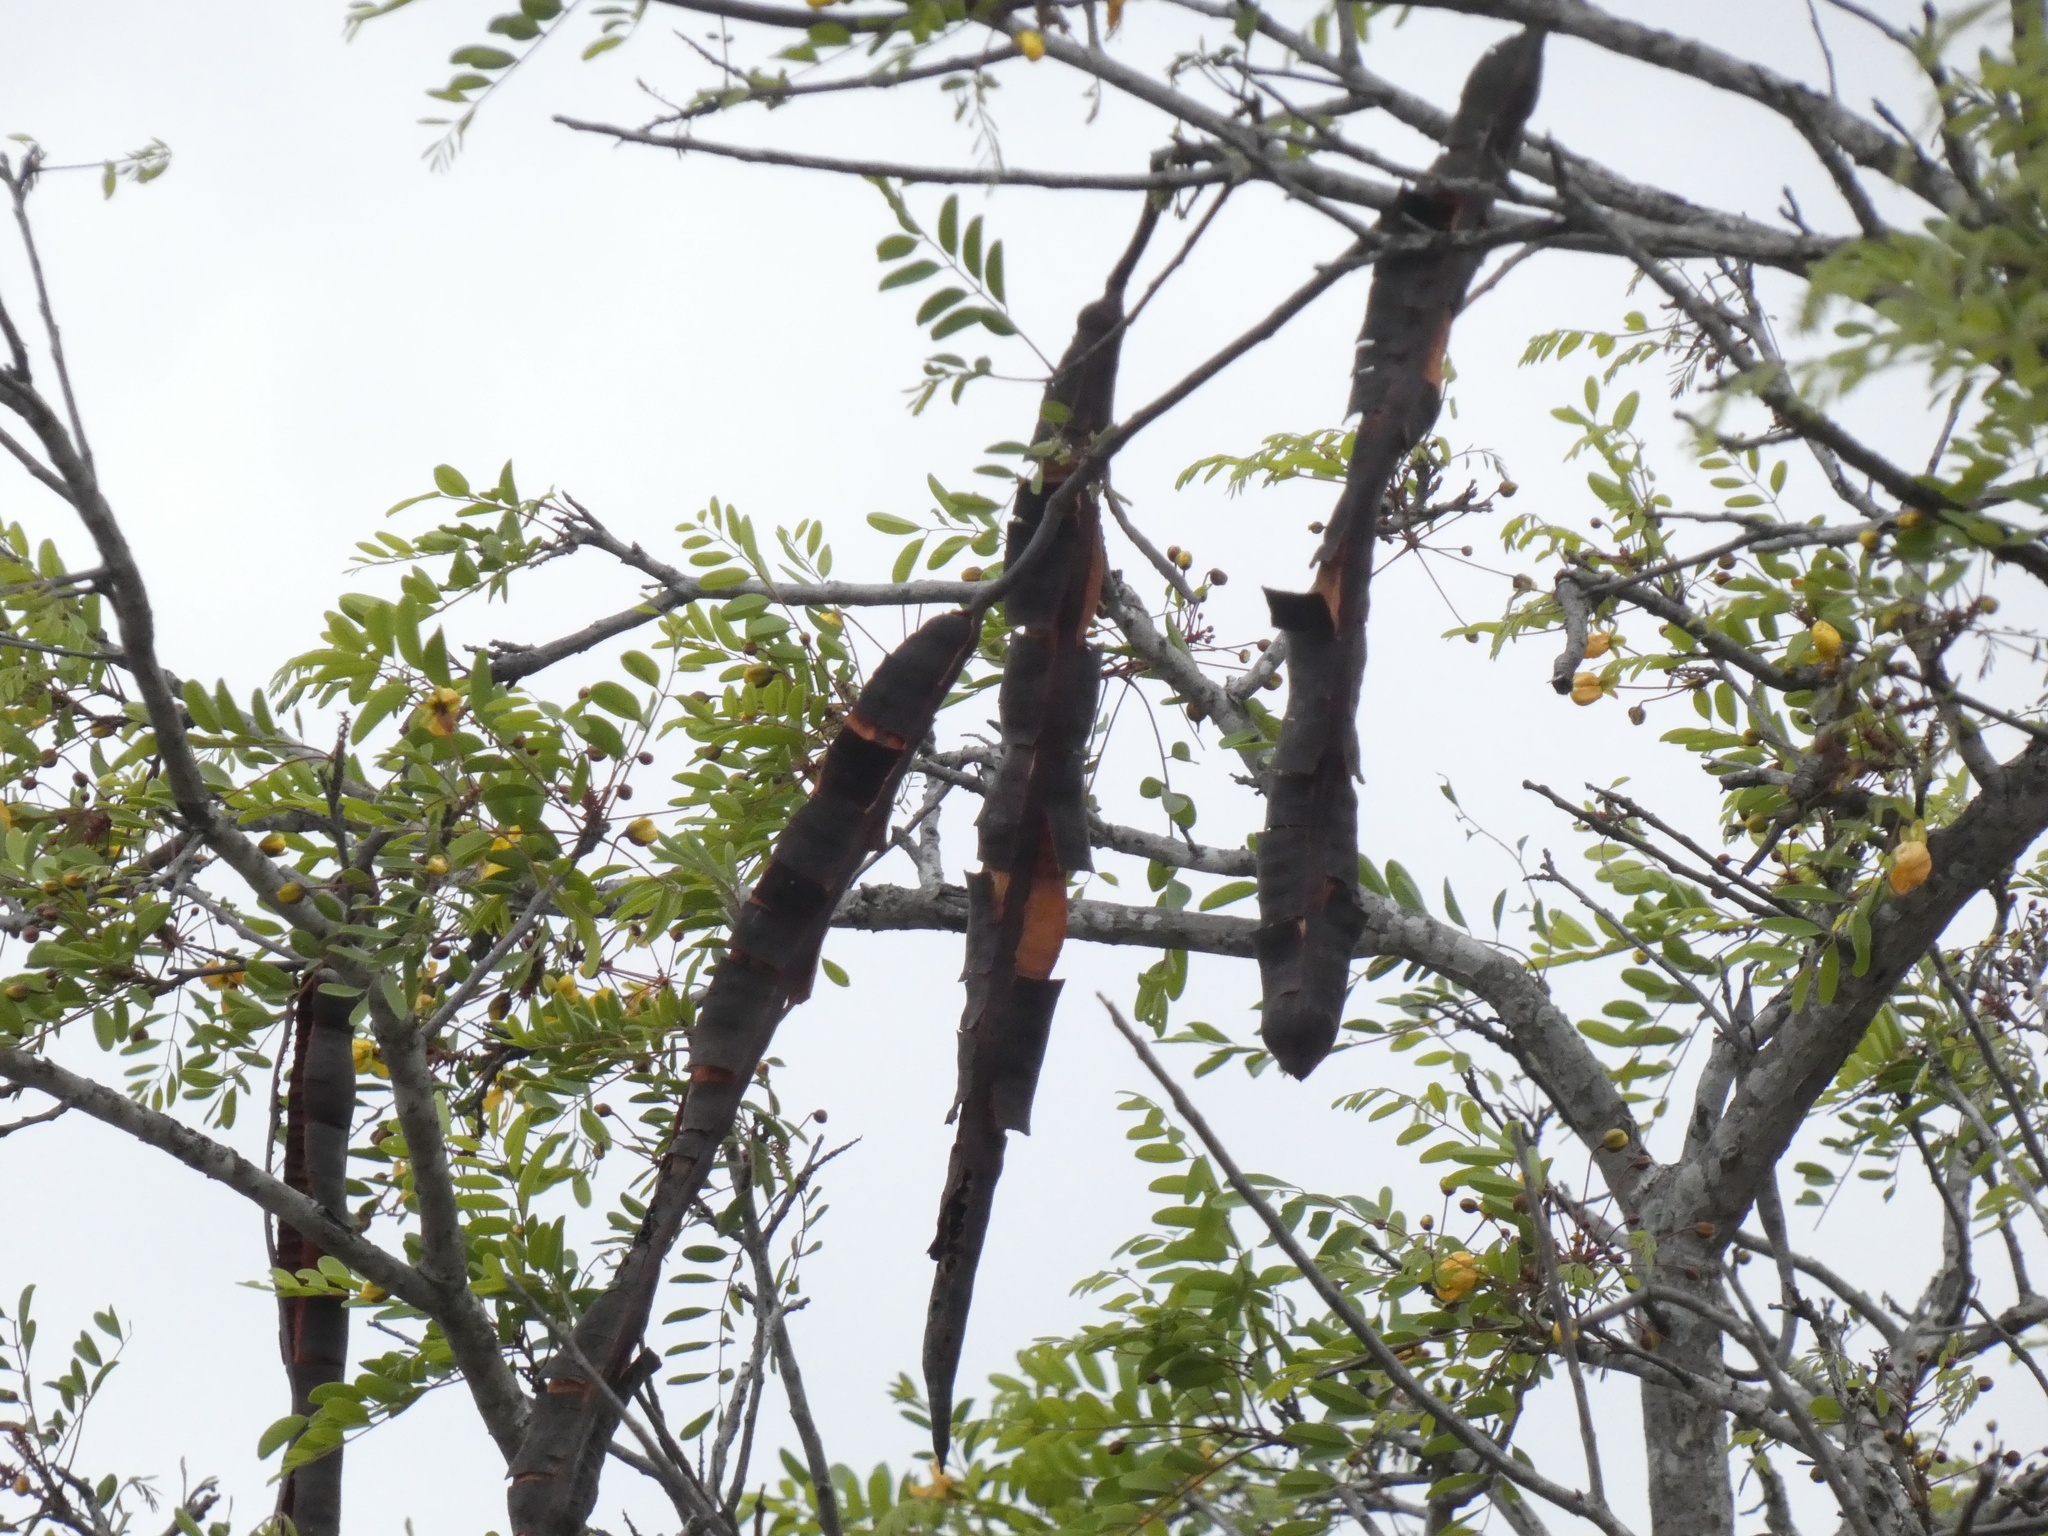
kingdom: Plantae
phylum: Tracheophyta
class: Magnoliopsida
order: Fabales
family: Fabaceae
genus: Cassia
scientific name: Cassia abbreviata
